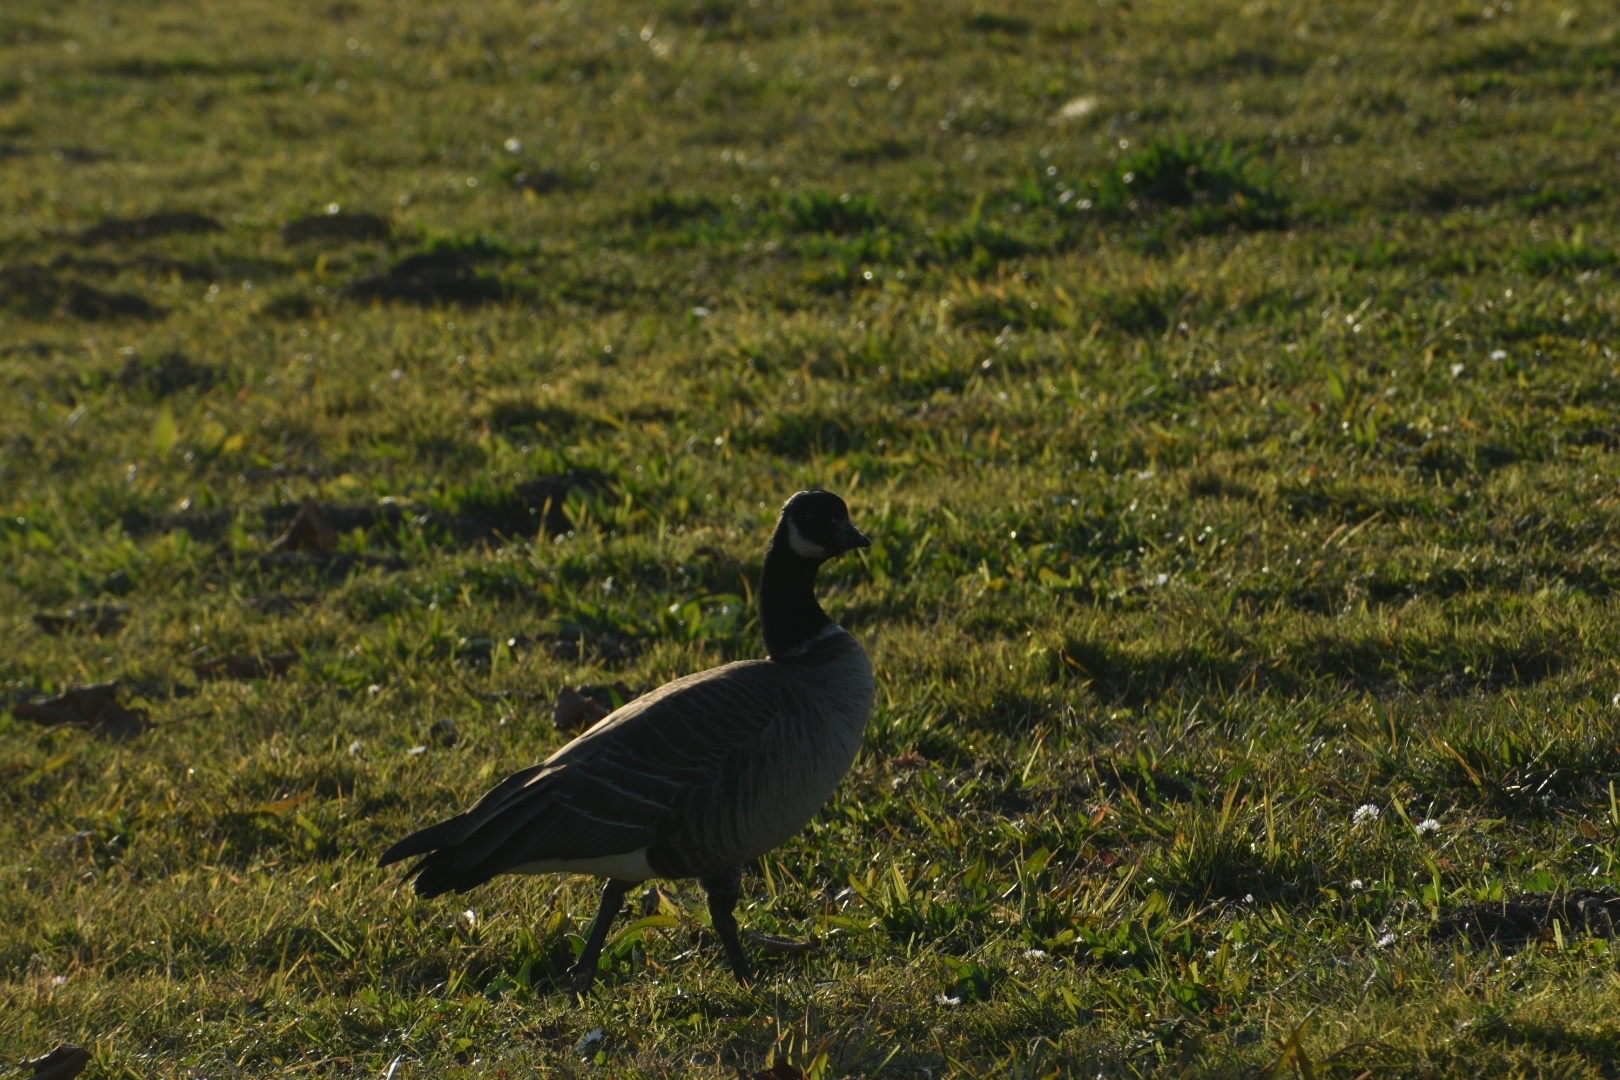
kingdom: Animalia
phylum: Chordata
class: Aves
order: Anseriformes
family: Anatidae
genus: Branta
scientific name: Branta hutchinsii
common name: Cackling goose
